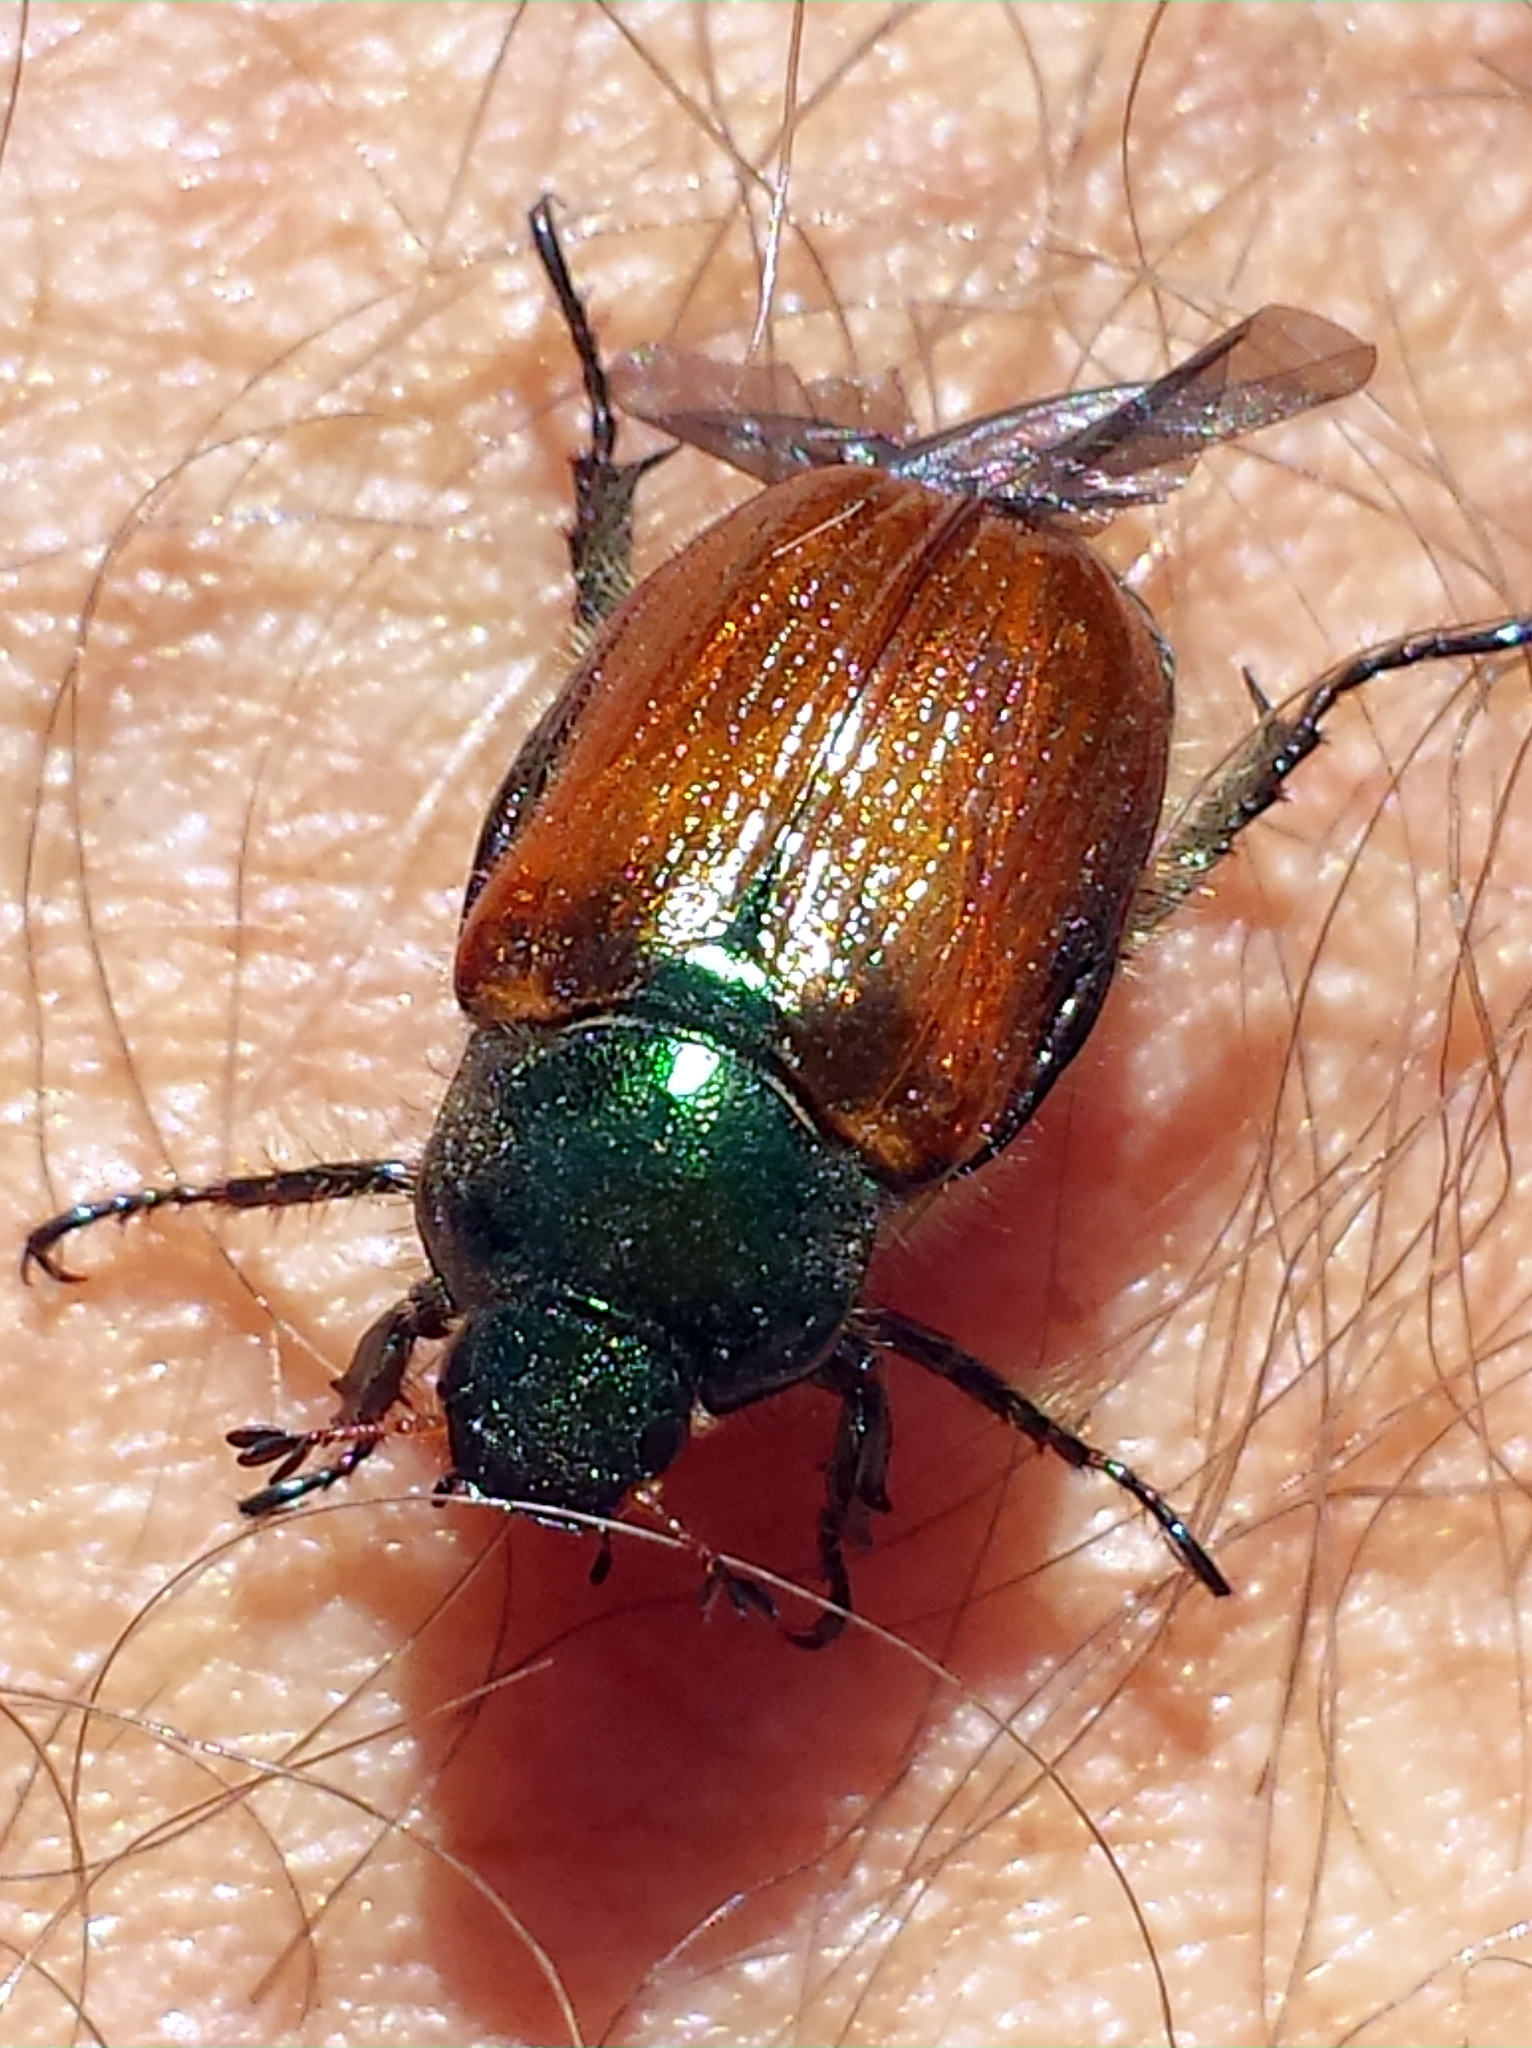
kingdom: Animalia
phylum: Arthropoda
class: Insecta
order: Coleoptera
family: Scarabaeidae
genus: Phyllopertha
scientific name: Phyllopertha horticola
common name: Garden chafer
